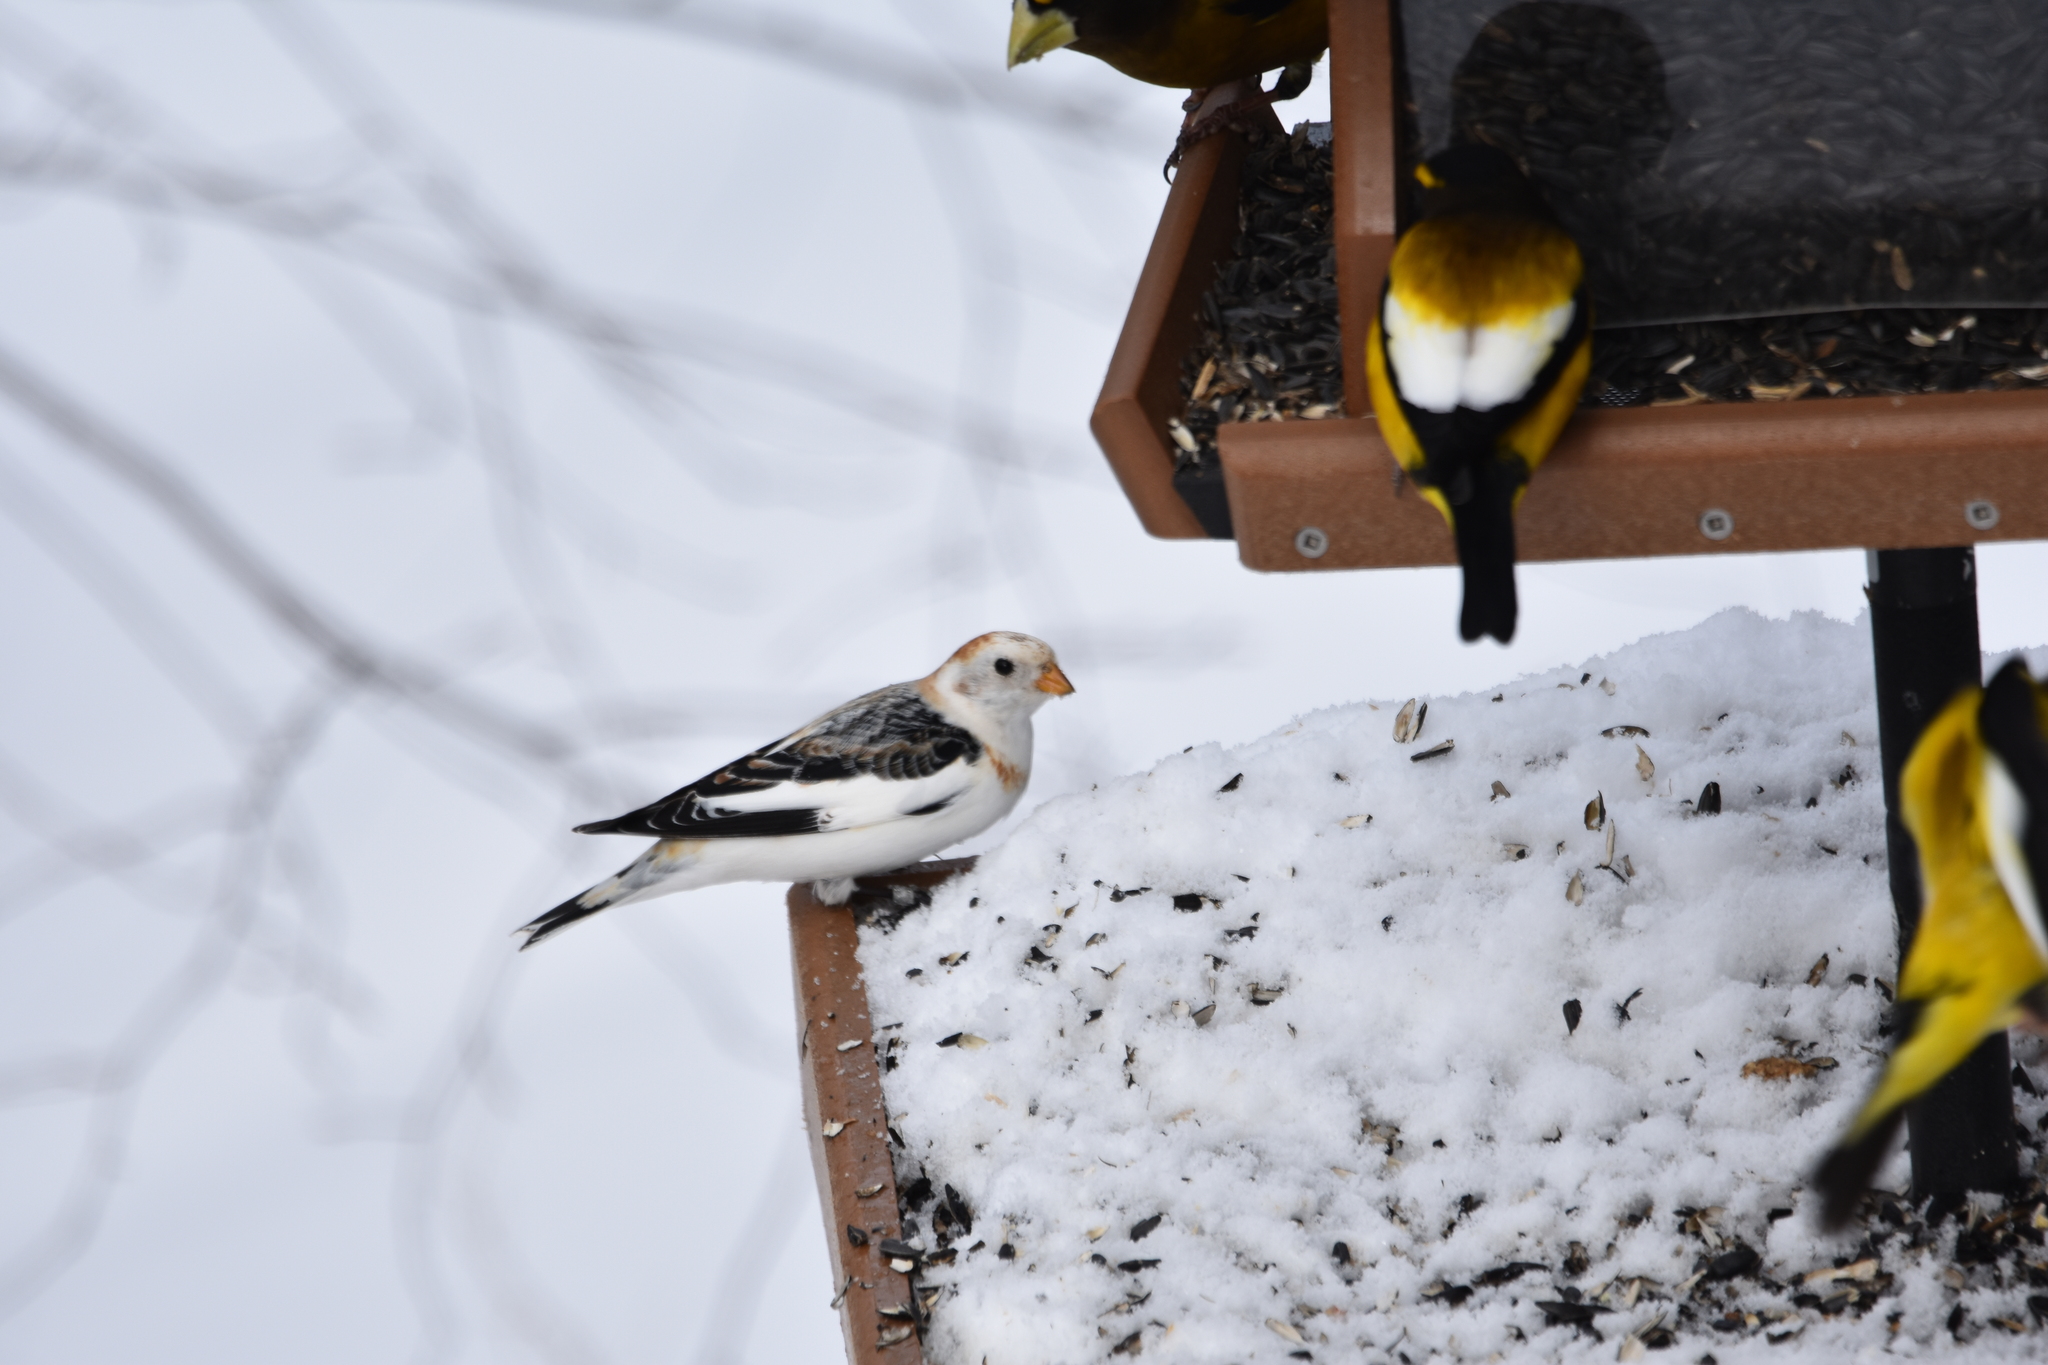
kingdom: Animalia
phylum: Chordata
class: Aves
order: Passeriformes
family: Calcariidae
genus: Plectrophenax
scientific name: Plectrophenax nivalis
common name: Snow bunting
